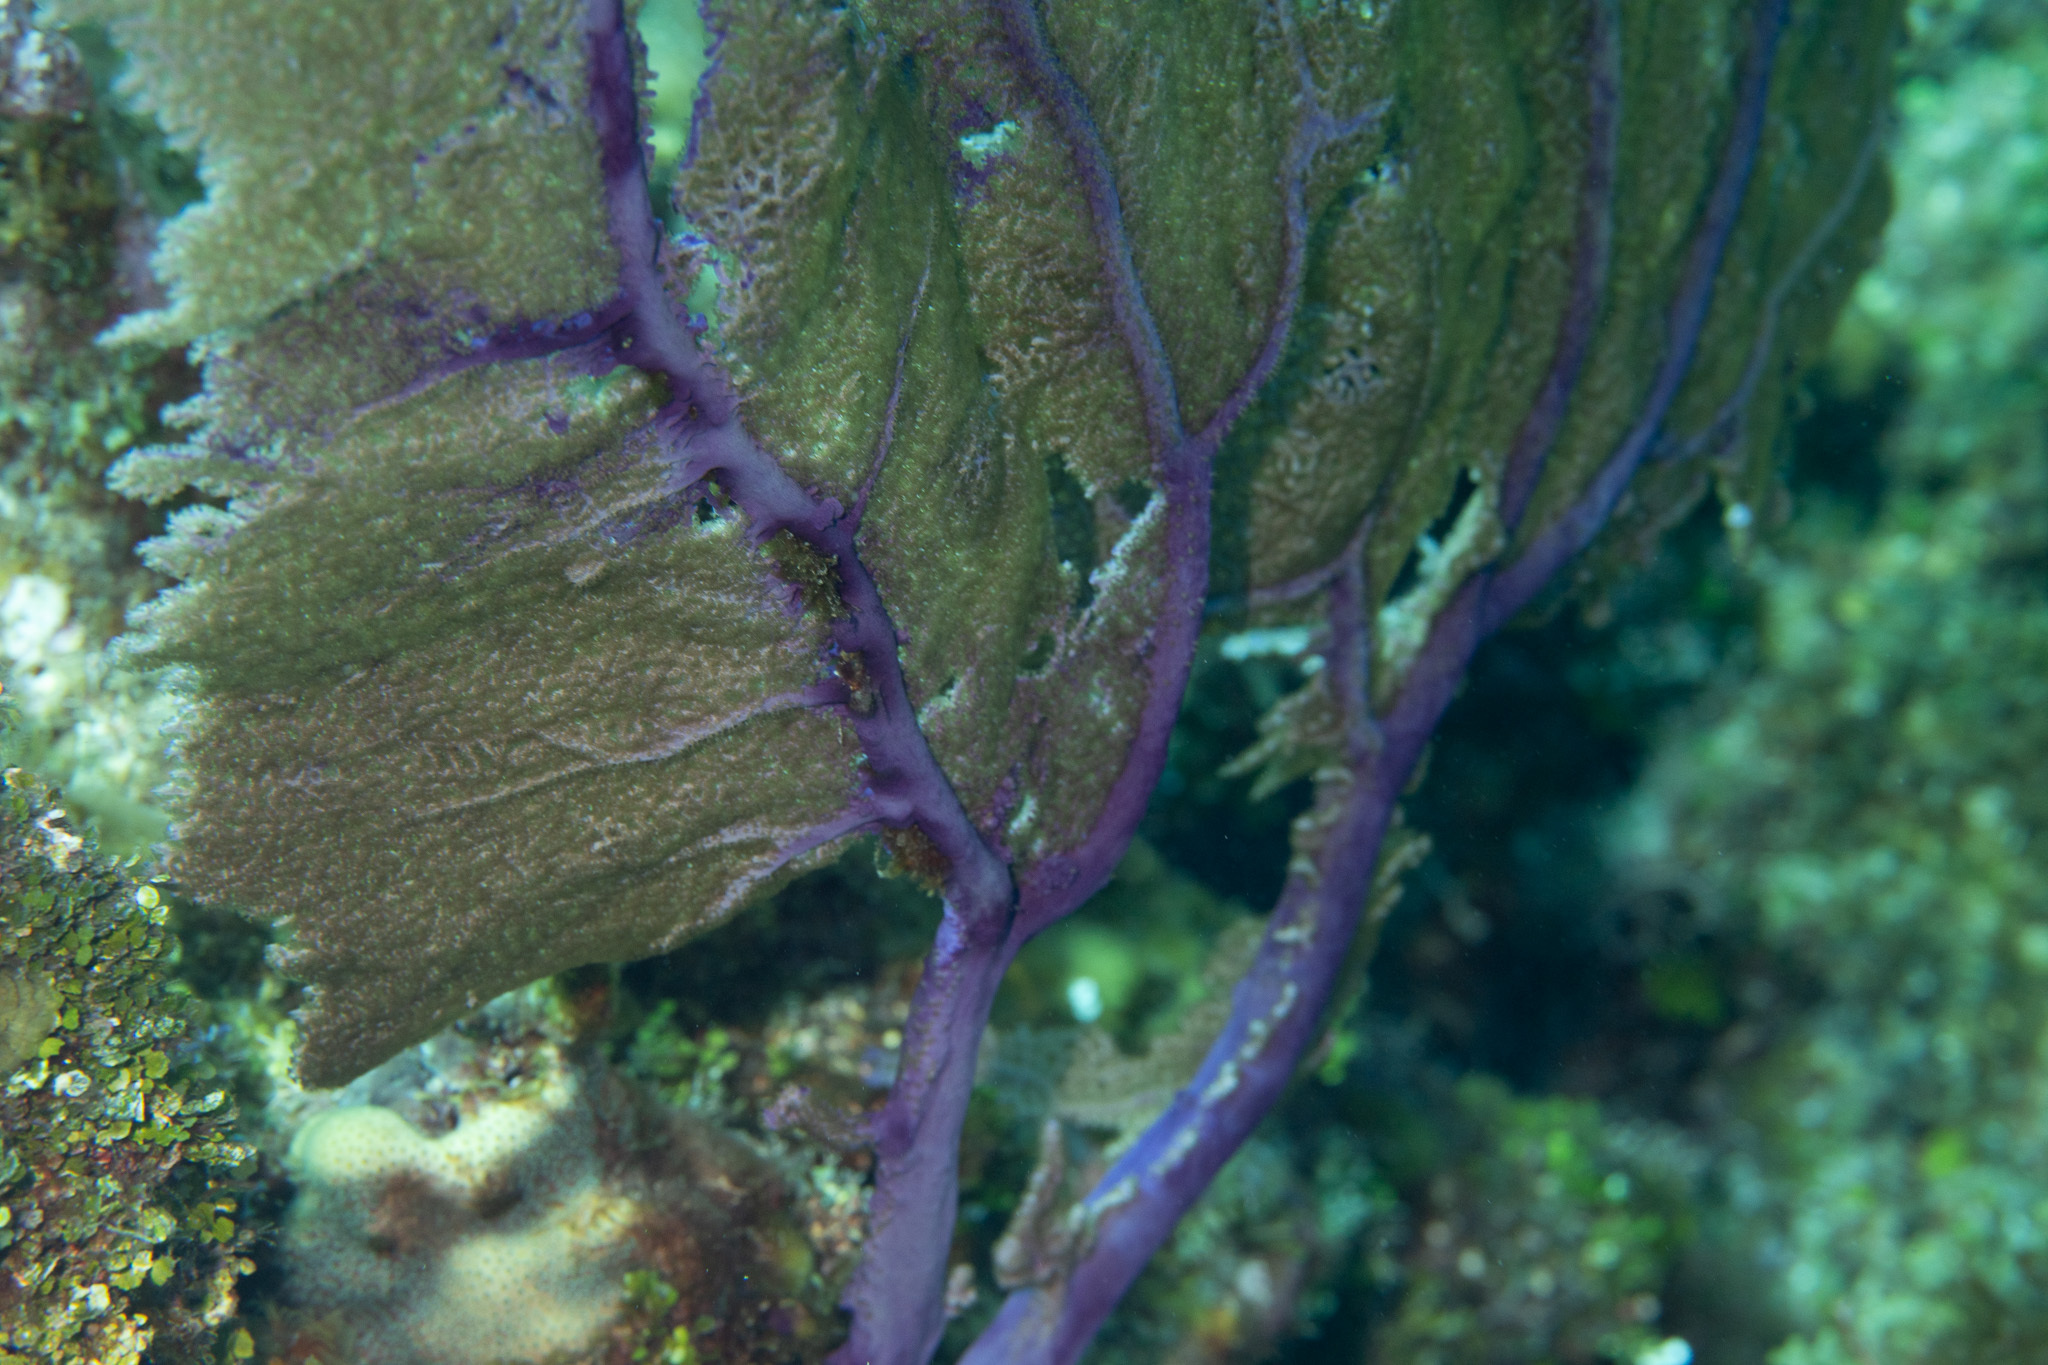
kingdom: Animalia
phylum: Cnidaria
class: Anthozoa
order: Malacalcyonacea
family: Gorgoniidae
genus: Gorgonia
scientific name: Gorgonia ventalina
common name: Common sea fan
